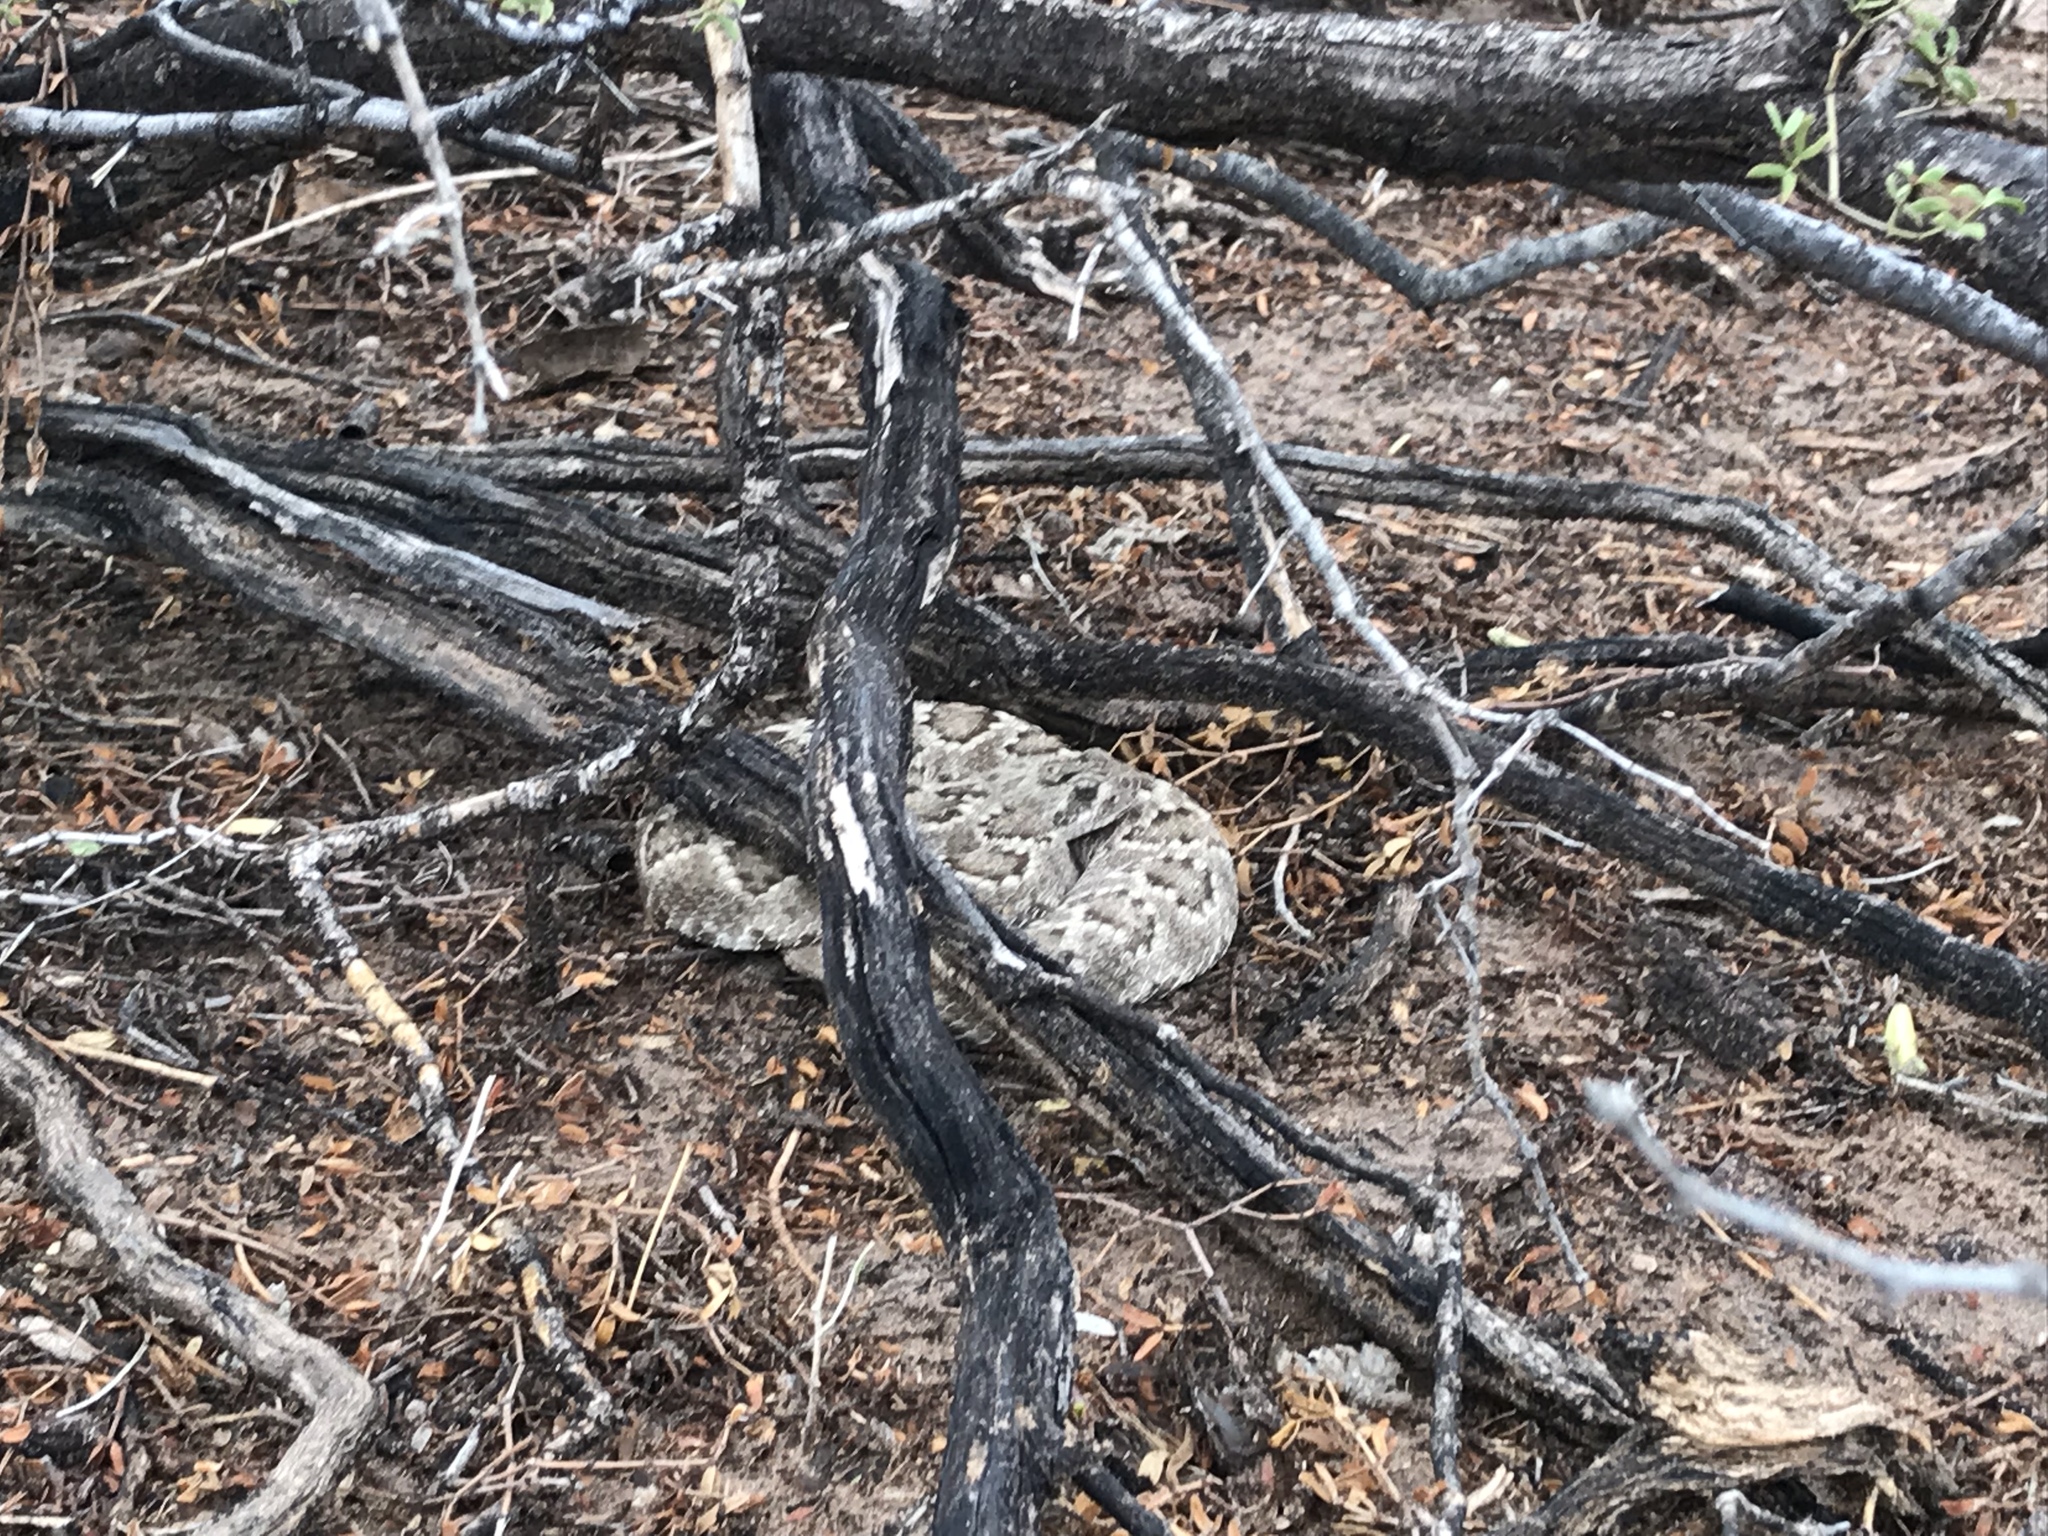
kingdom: Animalia
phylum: Chordata
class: Squamata
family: Viperidae
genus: Crotalus
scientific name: Crotalus scutulatus
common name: Scutulatus
